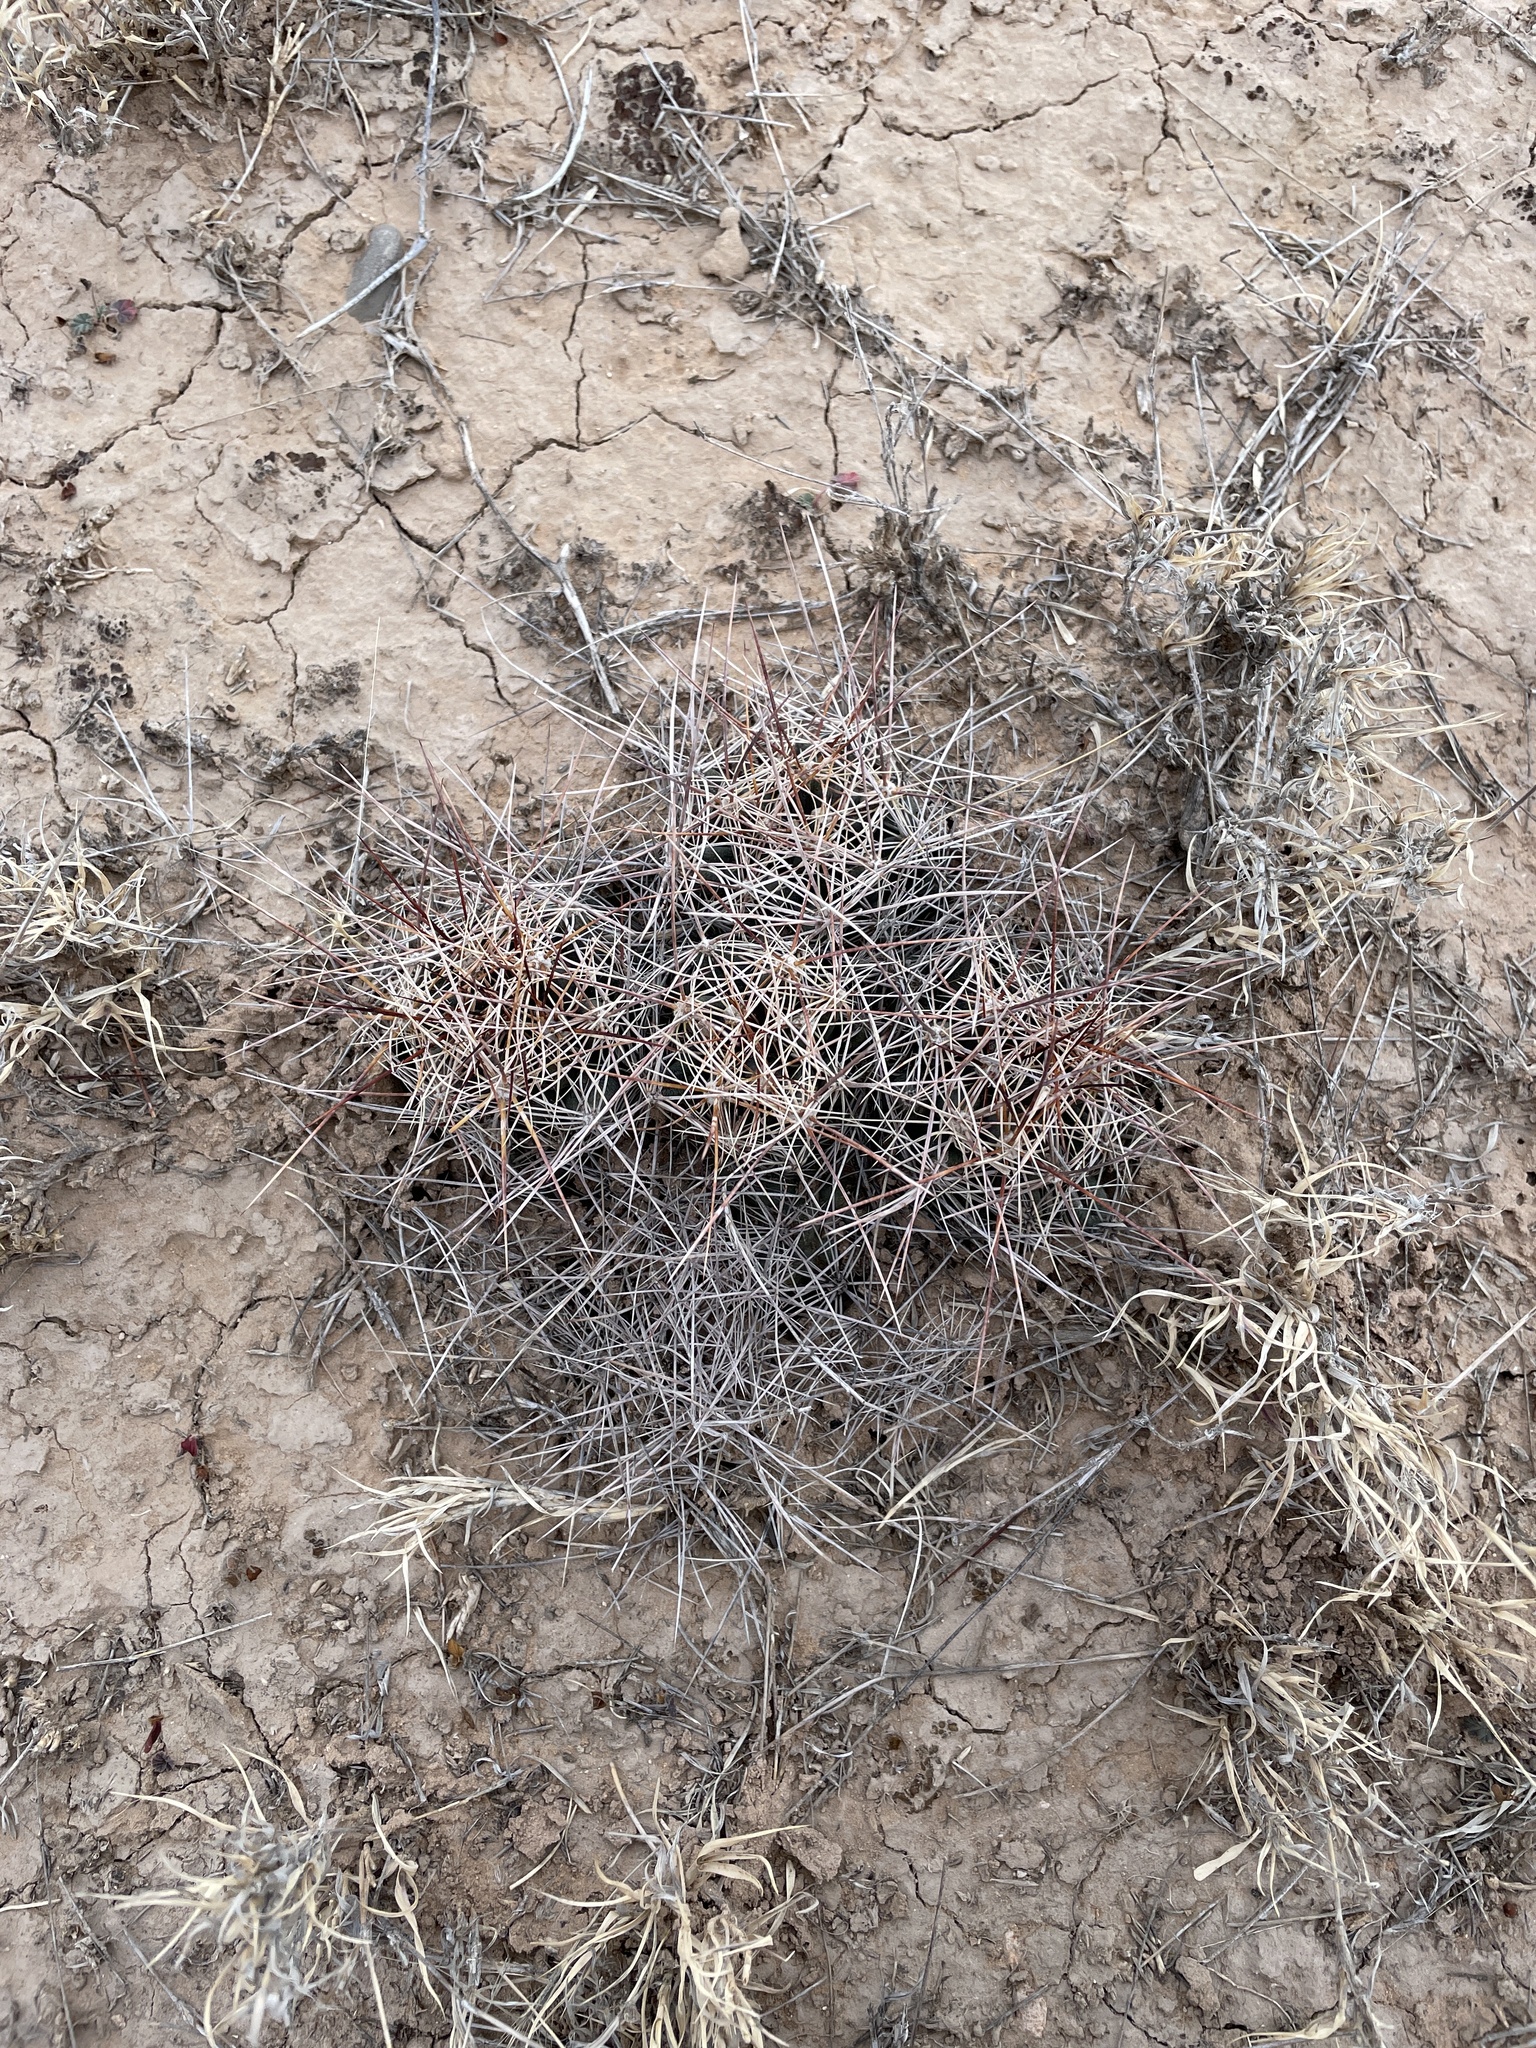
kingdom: Plantae
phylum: Tracheophyta
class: Magnoliopsida
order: Caryophyllales
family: Cactaceae
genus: Coryphantha
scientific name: Coryphantha macromeris
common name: Nipple beehive cactus
